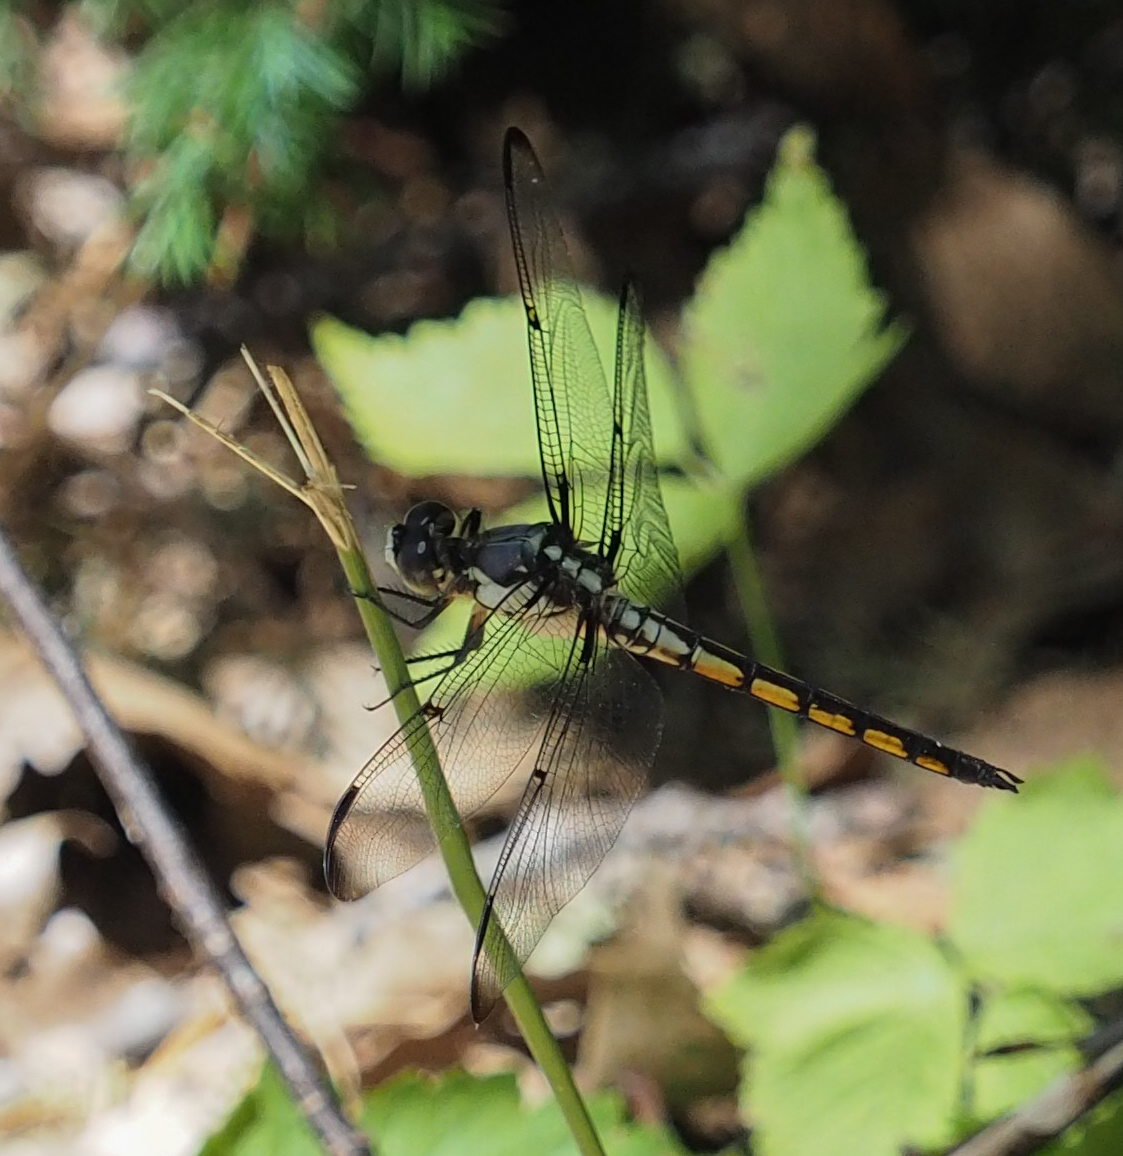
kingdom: Animalia
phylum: Arthropoda
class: Insecta
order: Odonata
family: Libellulidae
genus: Libellula
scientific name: Libellula vibrans
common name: Great blue skimmer
